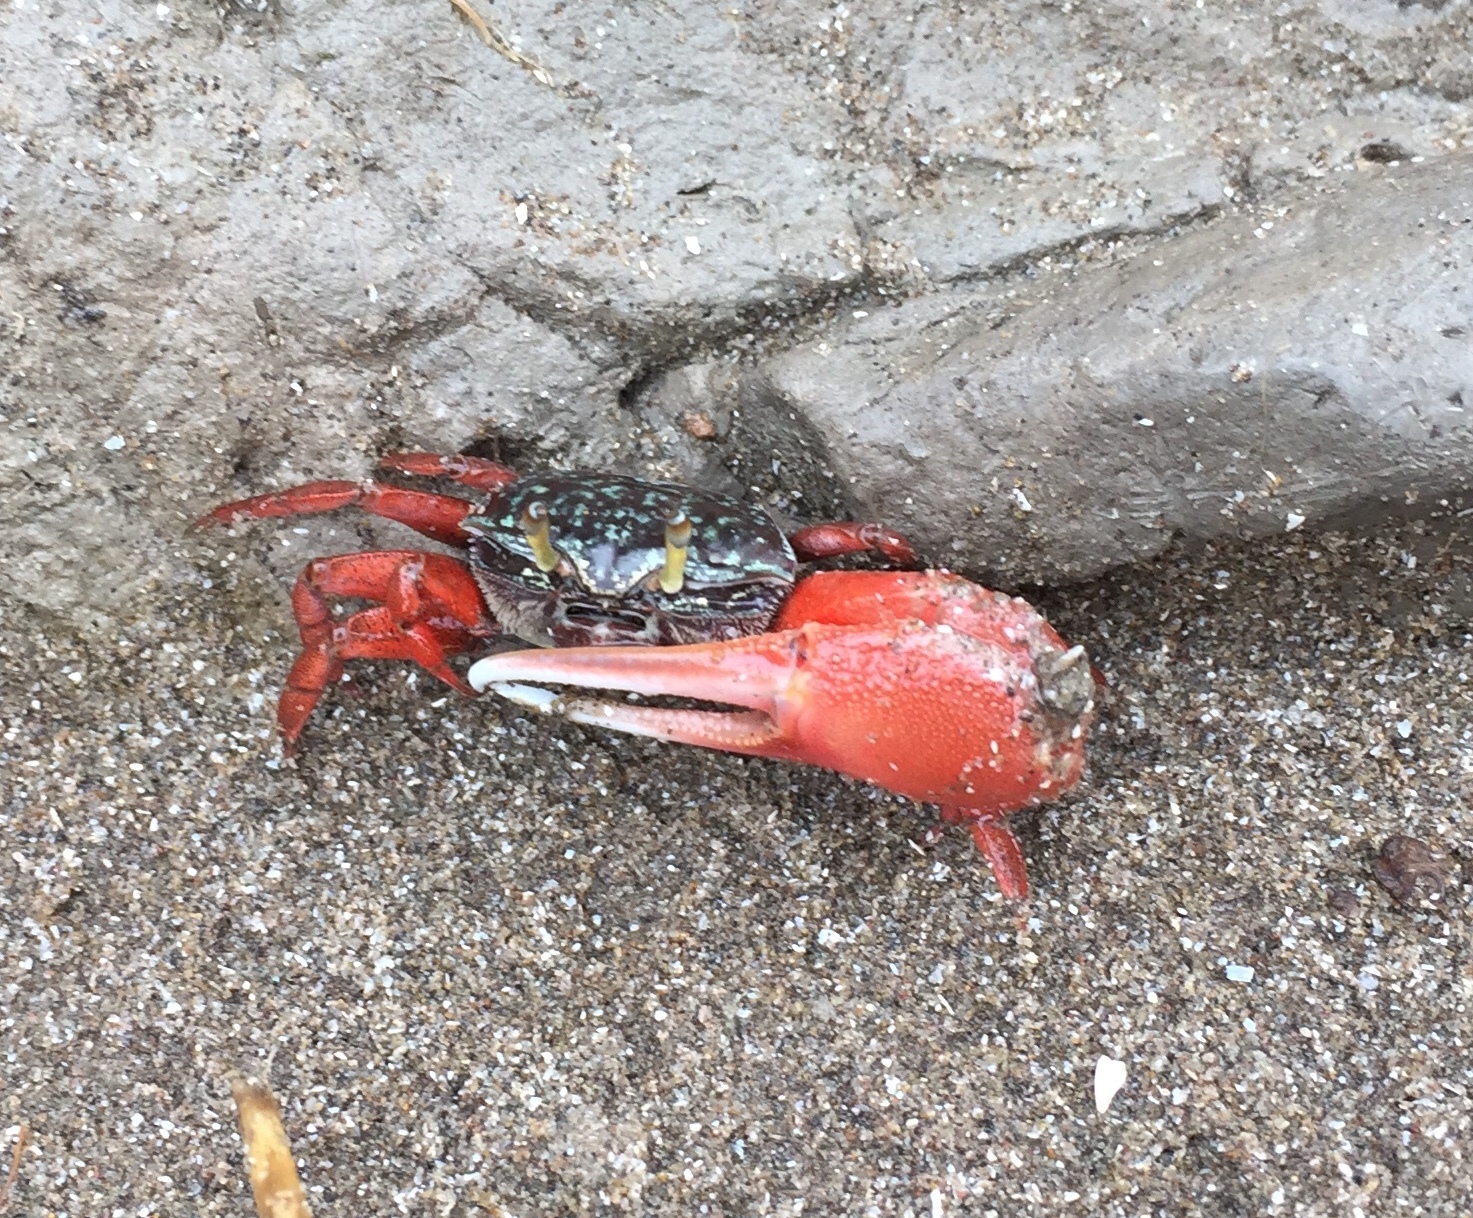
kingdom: Animalia
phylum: Arthropoda
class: Malacostraca
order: Decapoda
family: Ocypodidae
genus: Leptuca
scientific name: Leptuca uruguayensis
